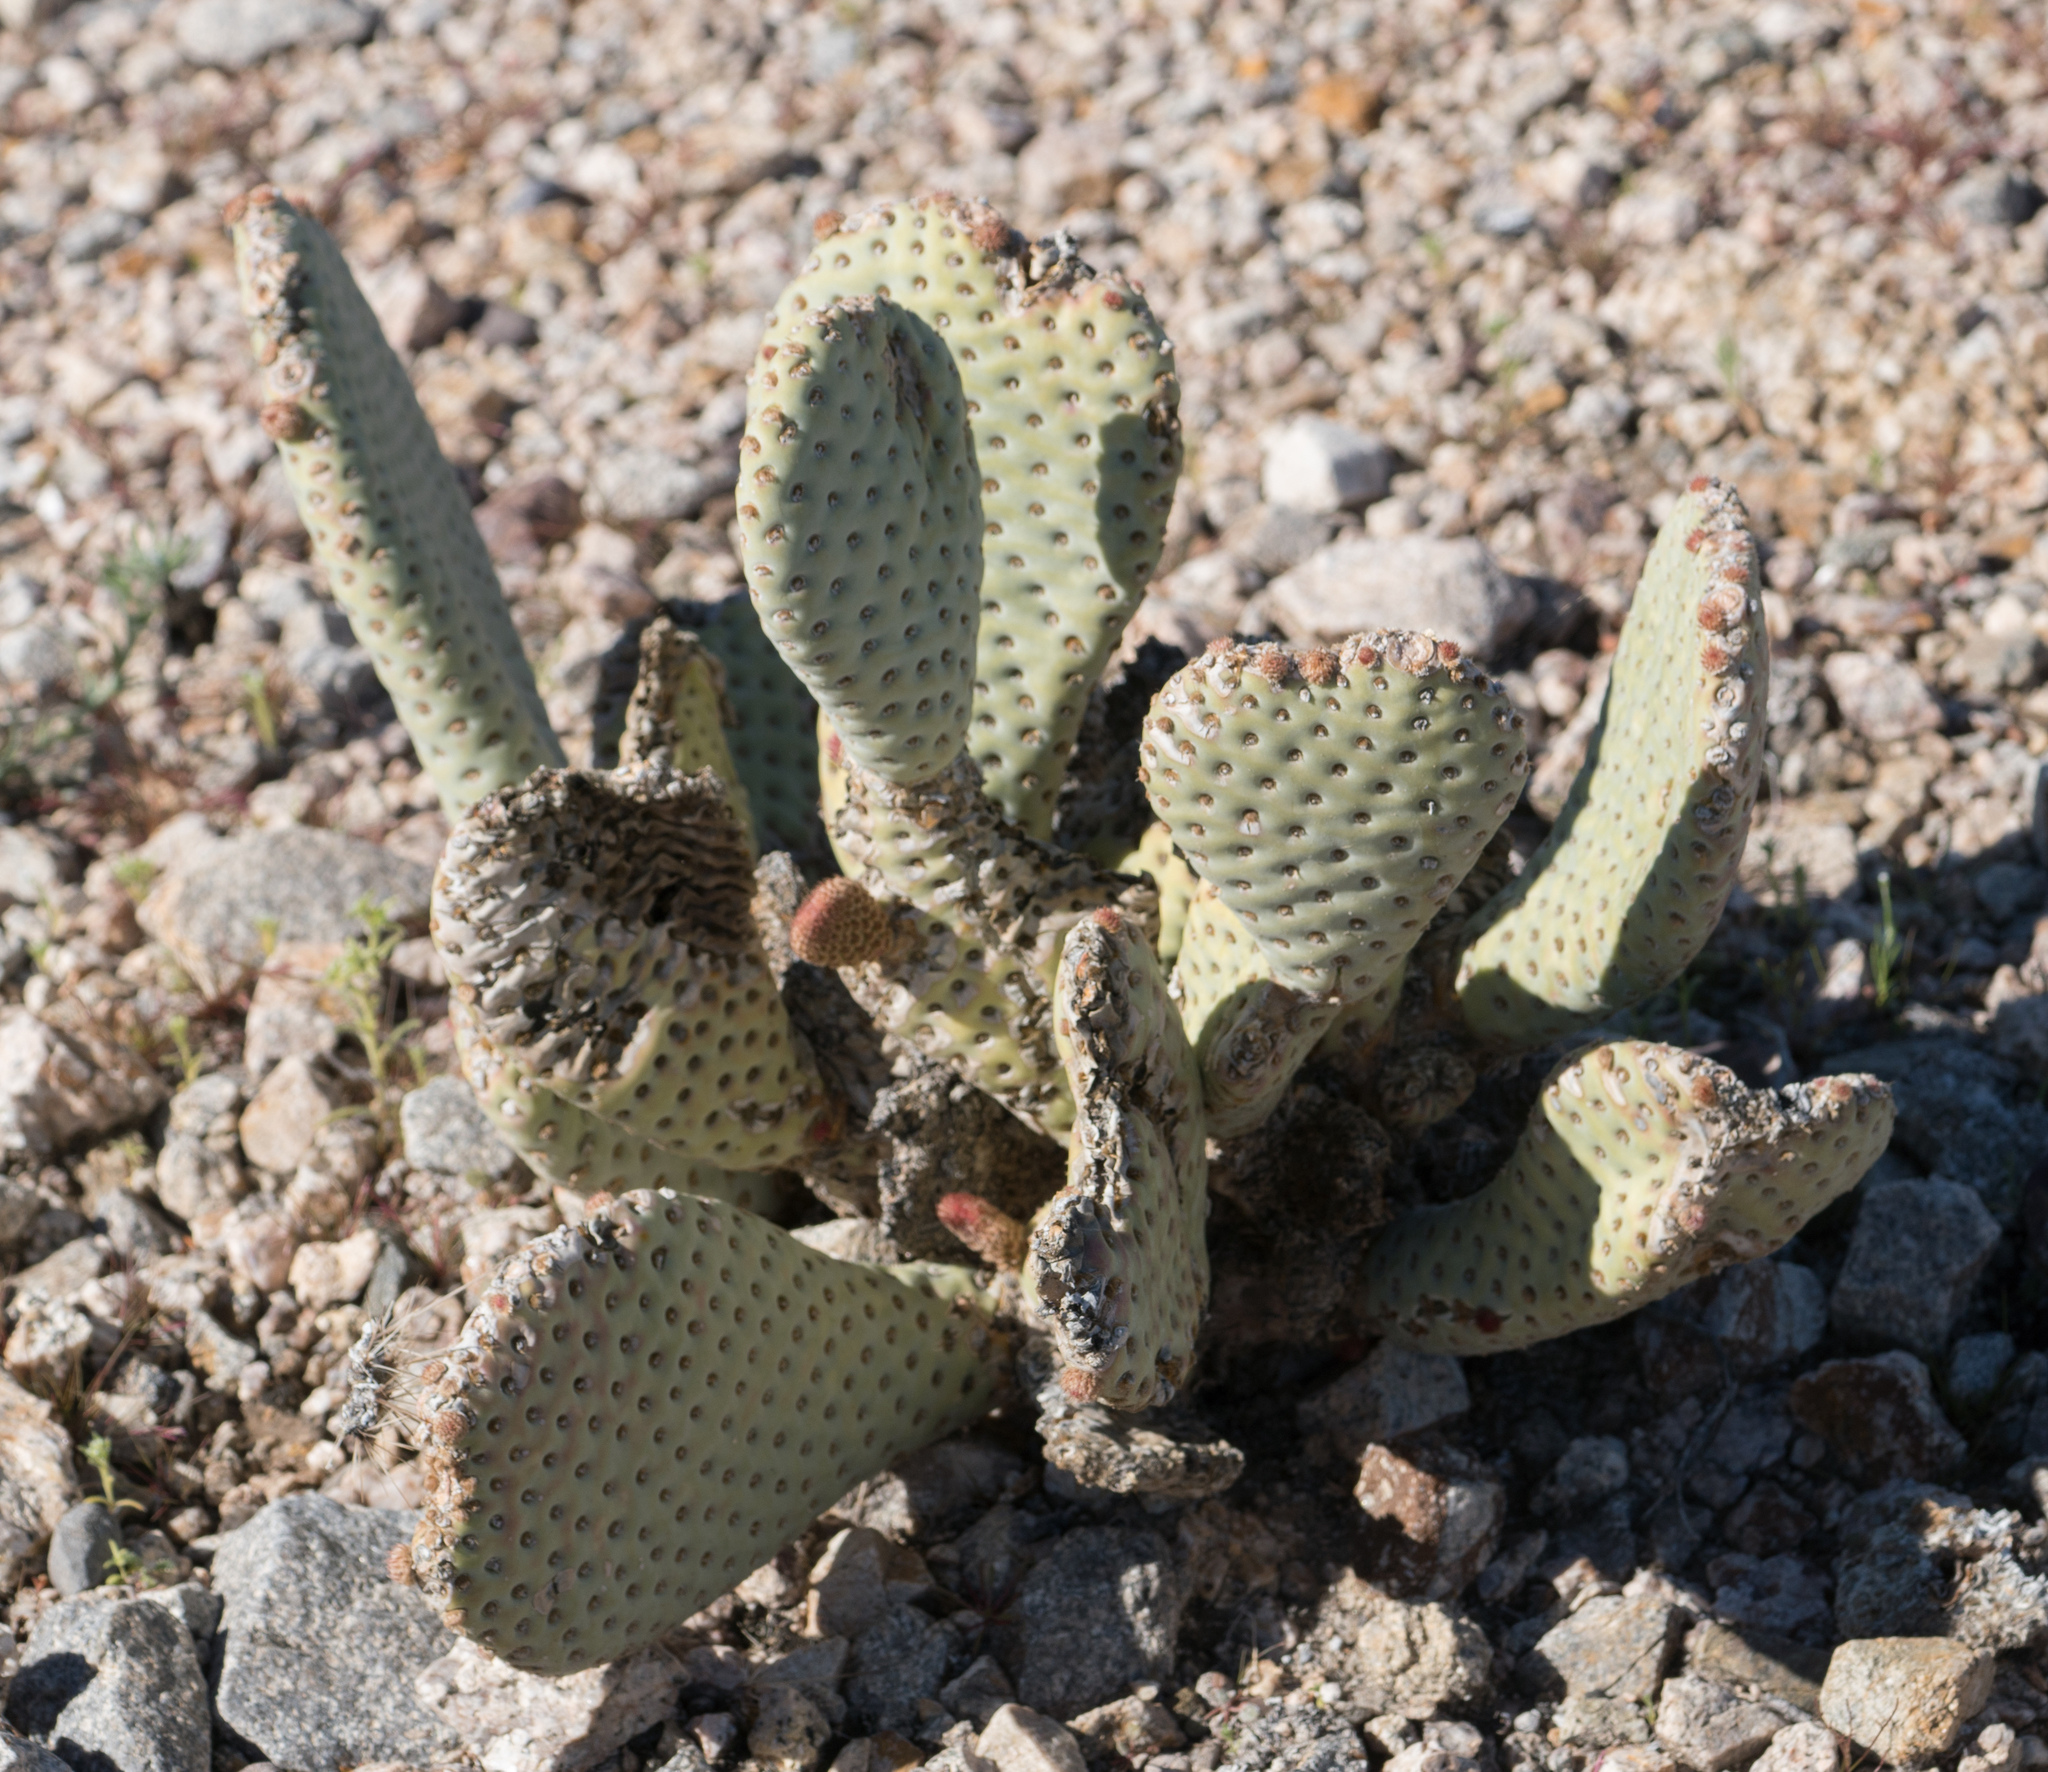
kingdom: Plantae
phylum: Tracheophyta
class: Magnoliopsida
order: Caryophyllales
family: Cactaceae
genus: Opuntia
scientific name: Opuntia basilaris
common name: Beavertail prickly-pear
